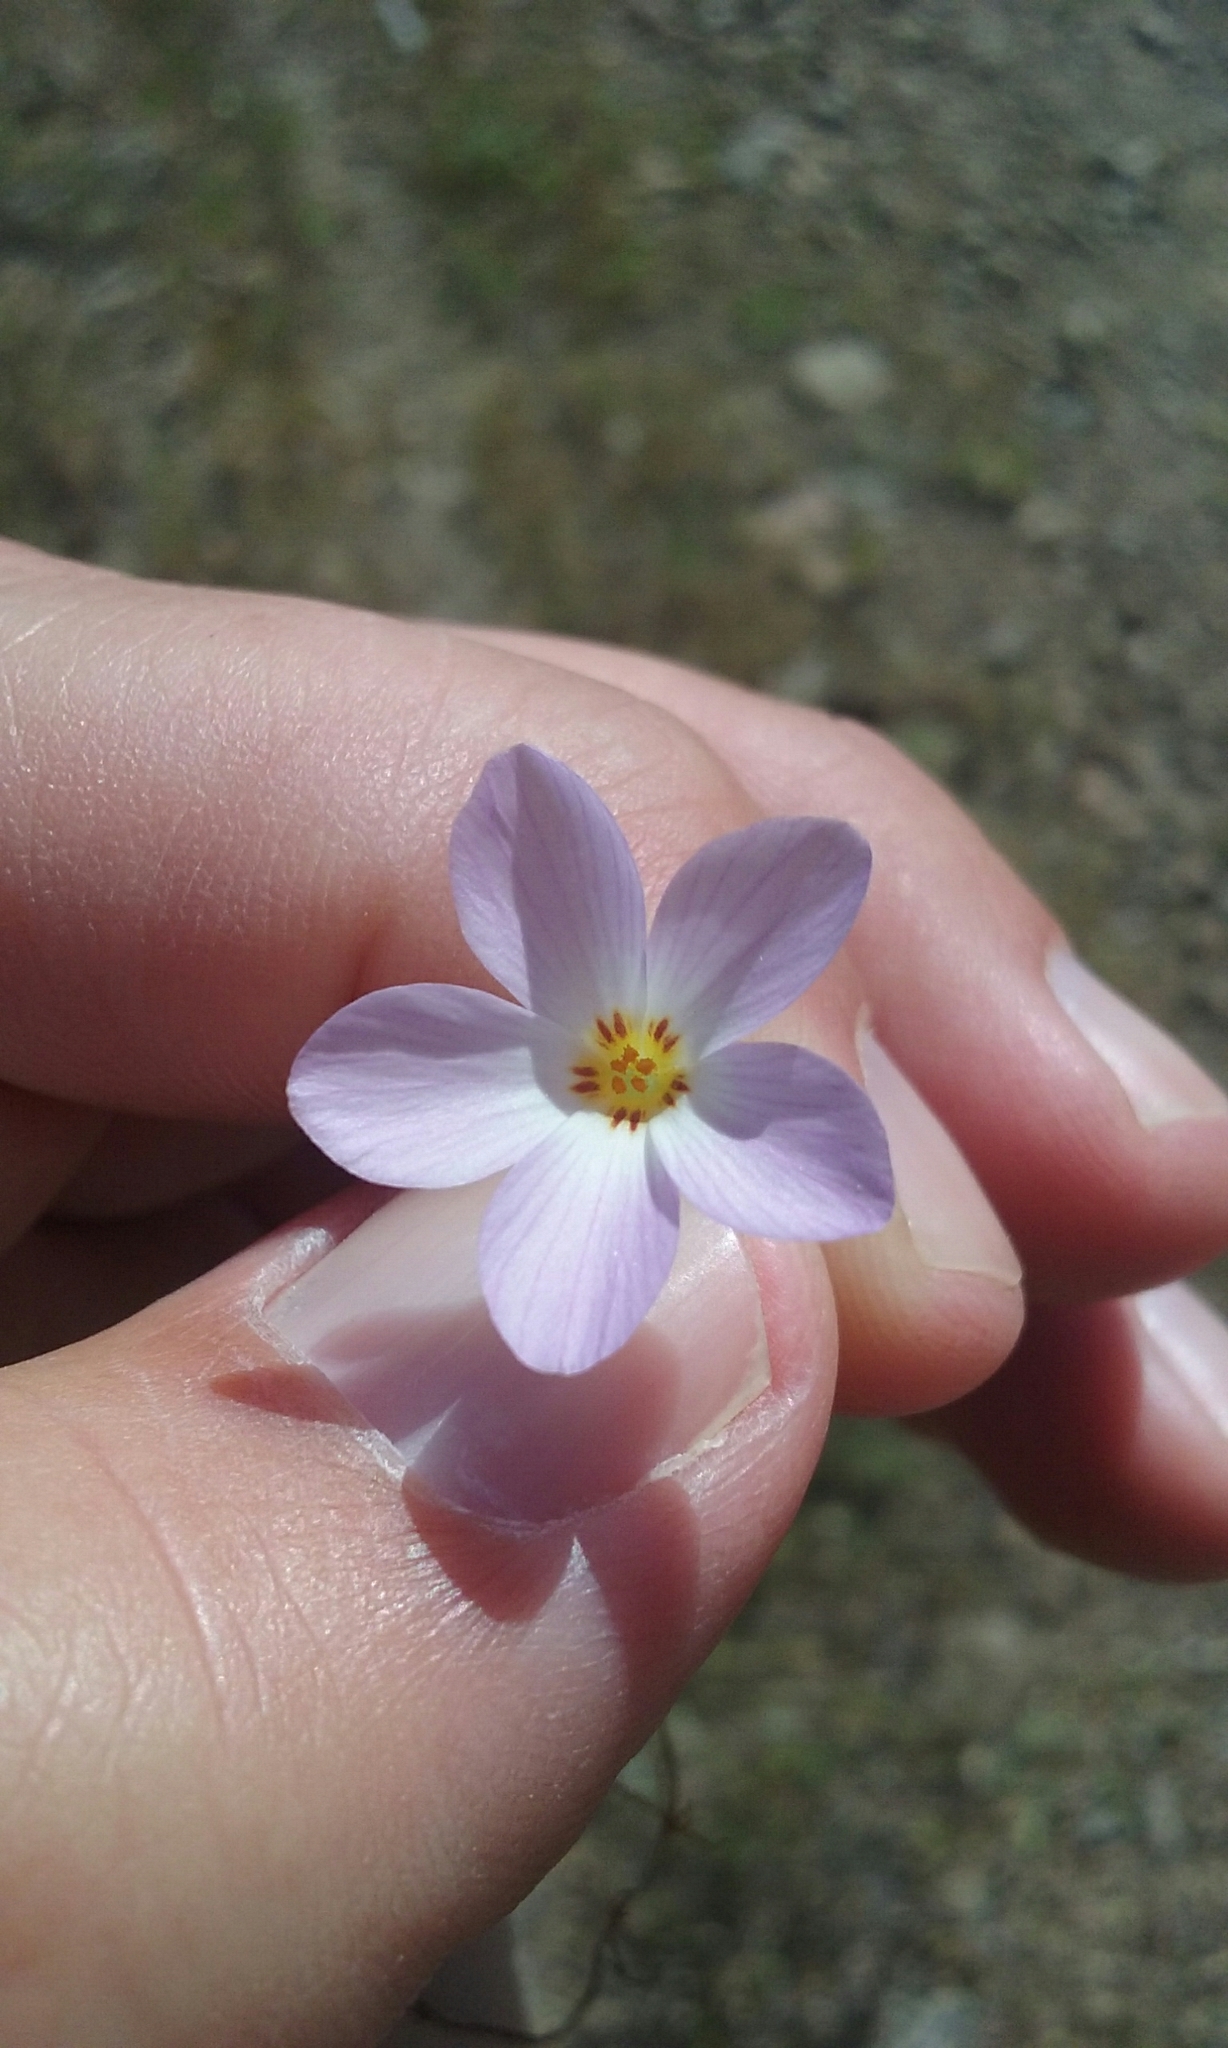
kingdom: Plantae
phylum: Tracheophyta
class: Magnoliopsida
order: Ericales
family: Polemoniaceae
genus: Leptosiphon
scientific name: Leptosiphon grandiflorus
